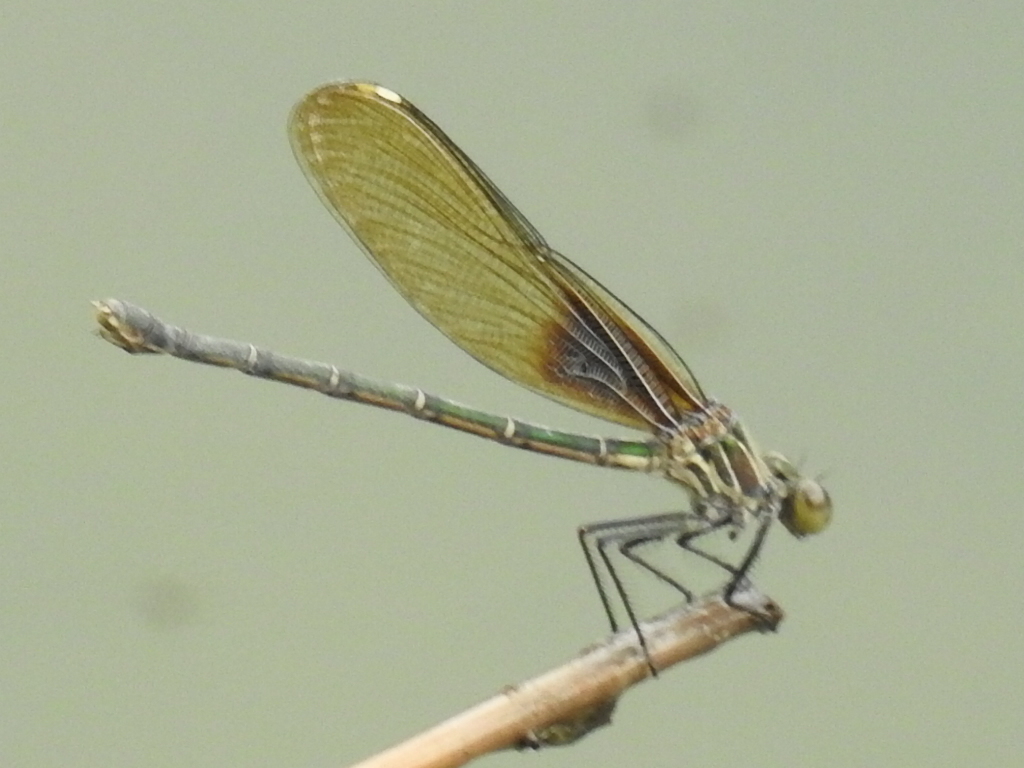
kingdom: Animalia
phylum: Arthropoda
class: Insecta
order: Odonata
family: Calopterygidae
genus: Hetaerina
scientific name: Hetaerina americana
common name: American rubyspot
